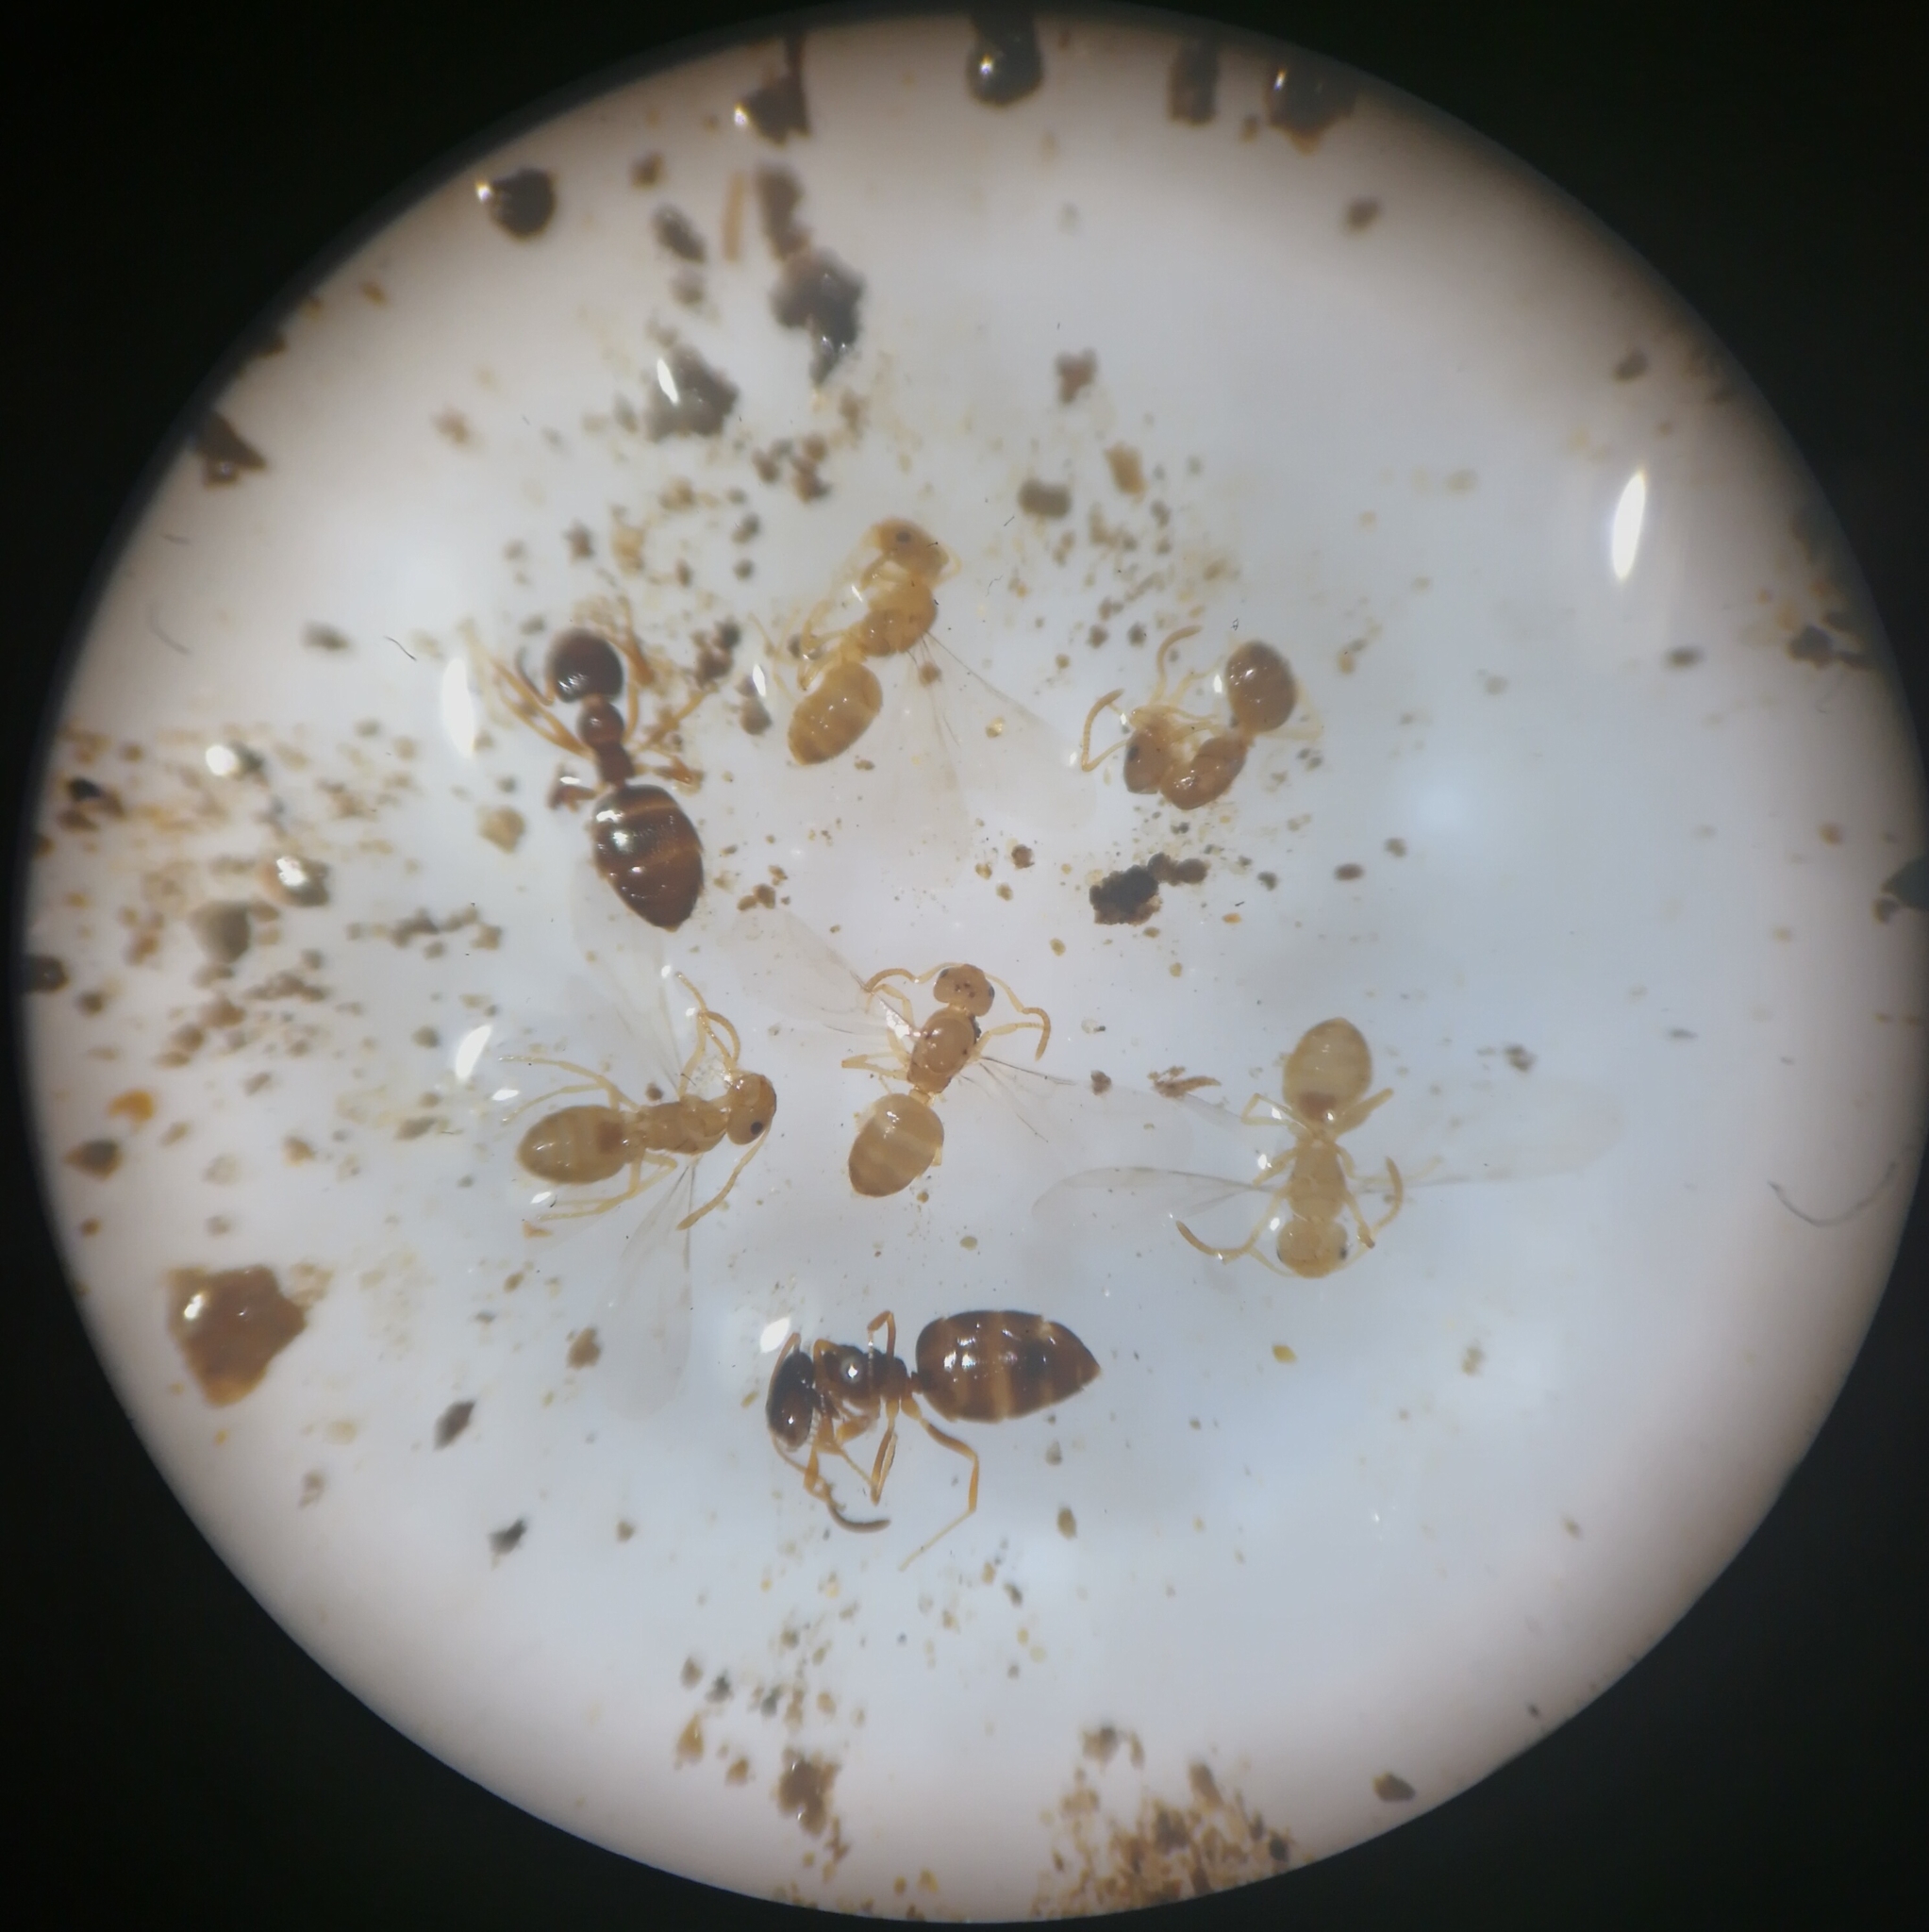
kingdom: Animalia
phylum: Arthropoda
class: Insecta
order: Hymenoptera
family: Formicidae
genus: Plagiolepis
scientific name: Plagiolepis xene
